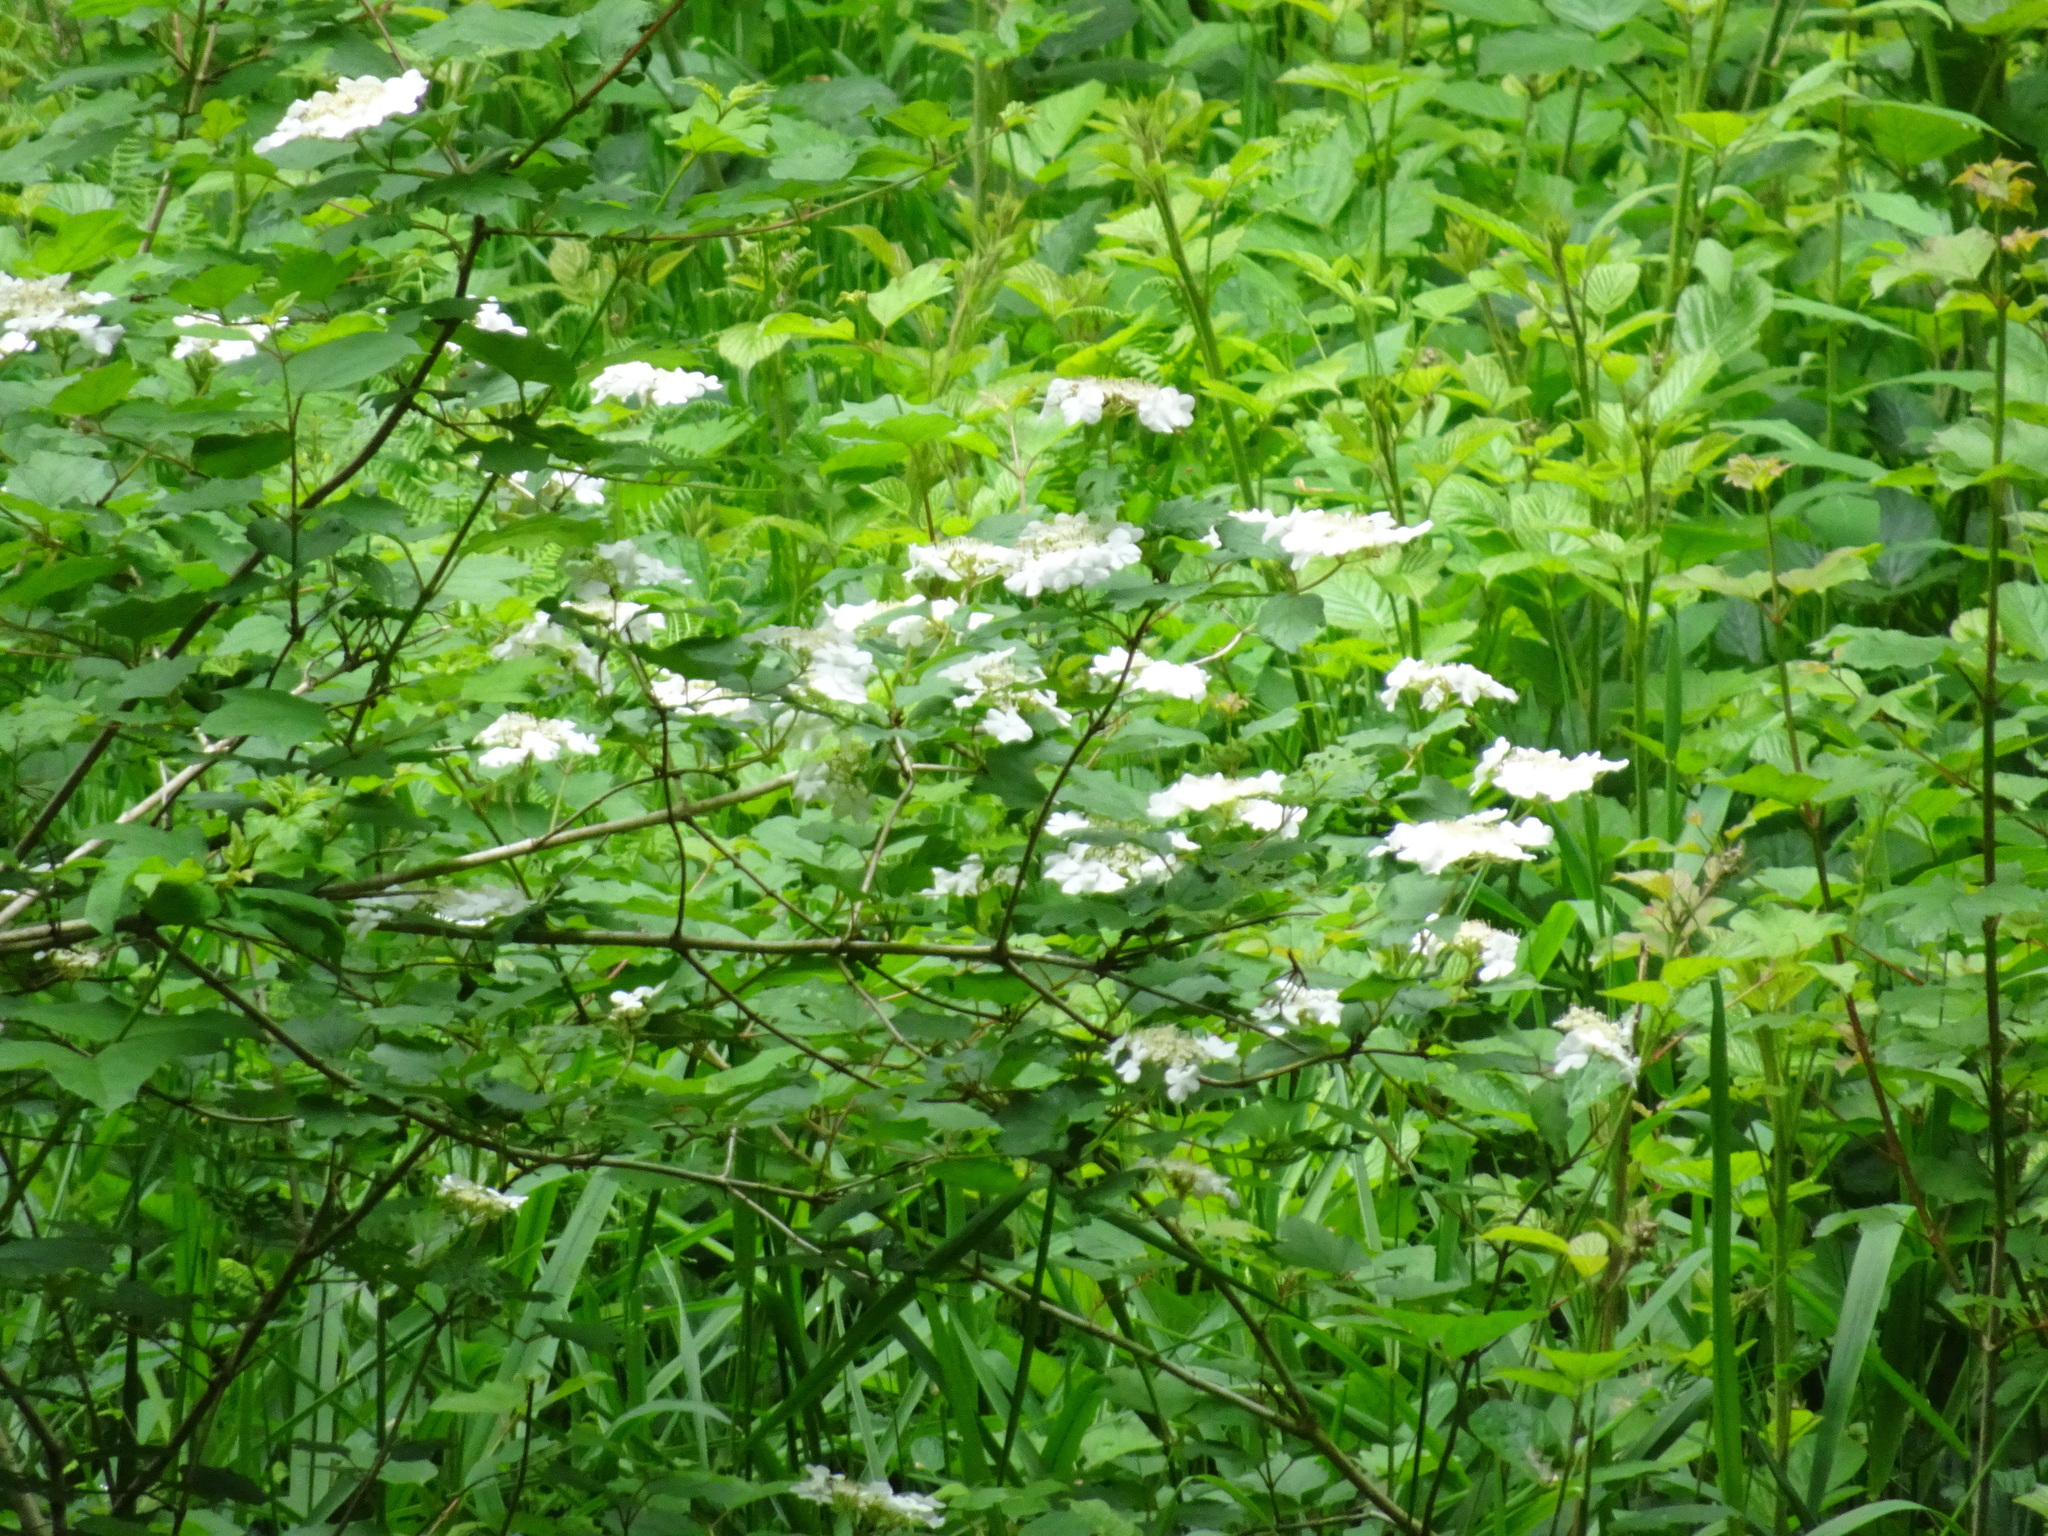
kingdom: Plantae
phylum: Tracheophyta
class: Magnoliopsida
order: Dipsacales
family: Viburnaceae
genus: Viburnum
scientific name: Viburnum opulus
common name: Guelder-rose
